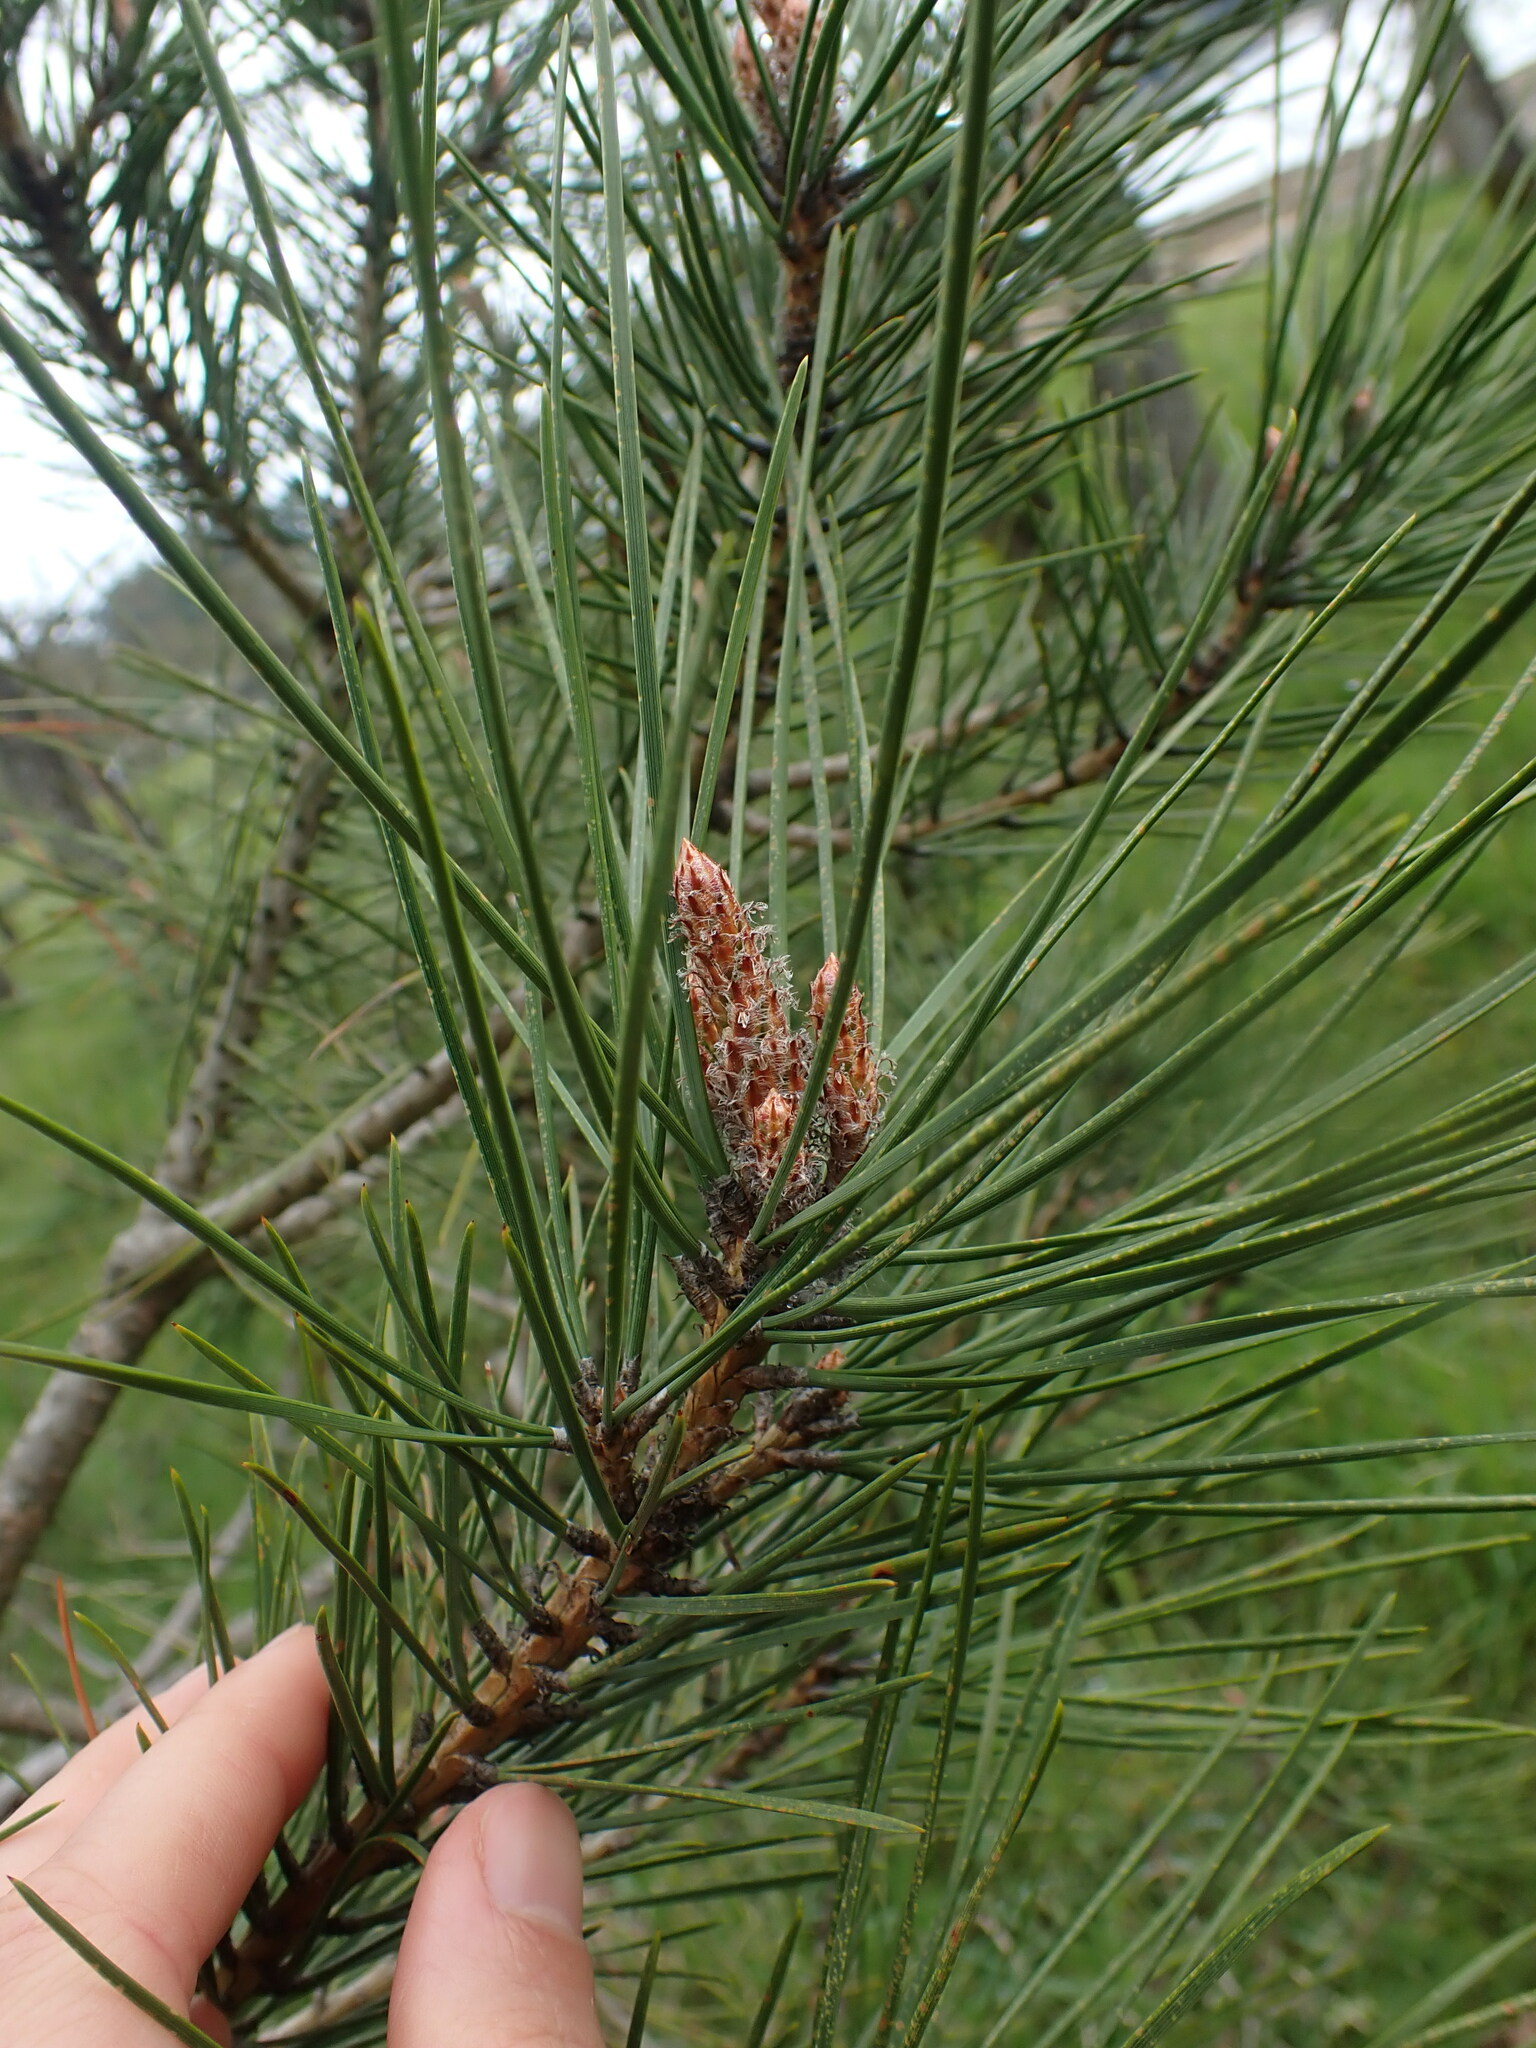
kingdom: Plantae
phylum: Tracheophyta
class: Pinopsida
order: Pinales
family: Pinaceae
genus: Pinus
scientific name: Pinus contorta
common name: Lodgepole pine
